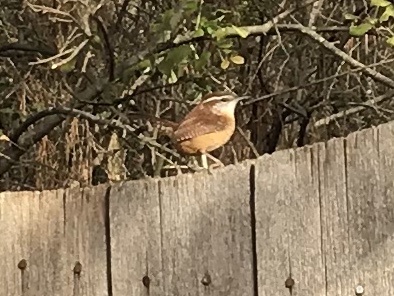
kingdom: Animalia
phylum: Chordata
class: Aves
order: Passeriformes
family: Troglodytidae
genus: Thryothorus
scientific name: Thryothorus ludovicianus
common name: Carolina wren
